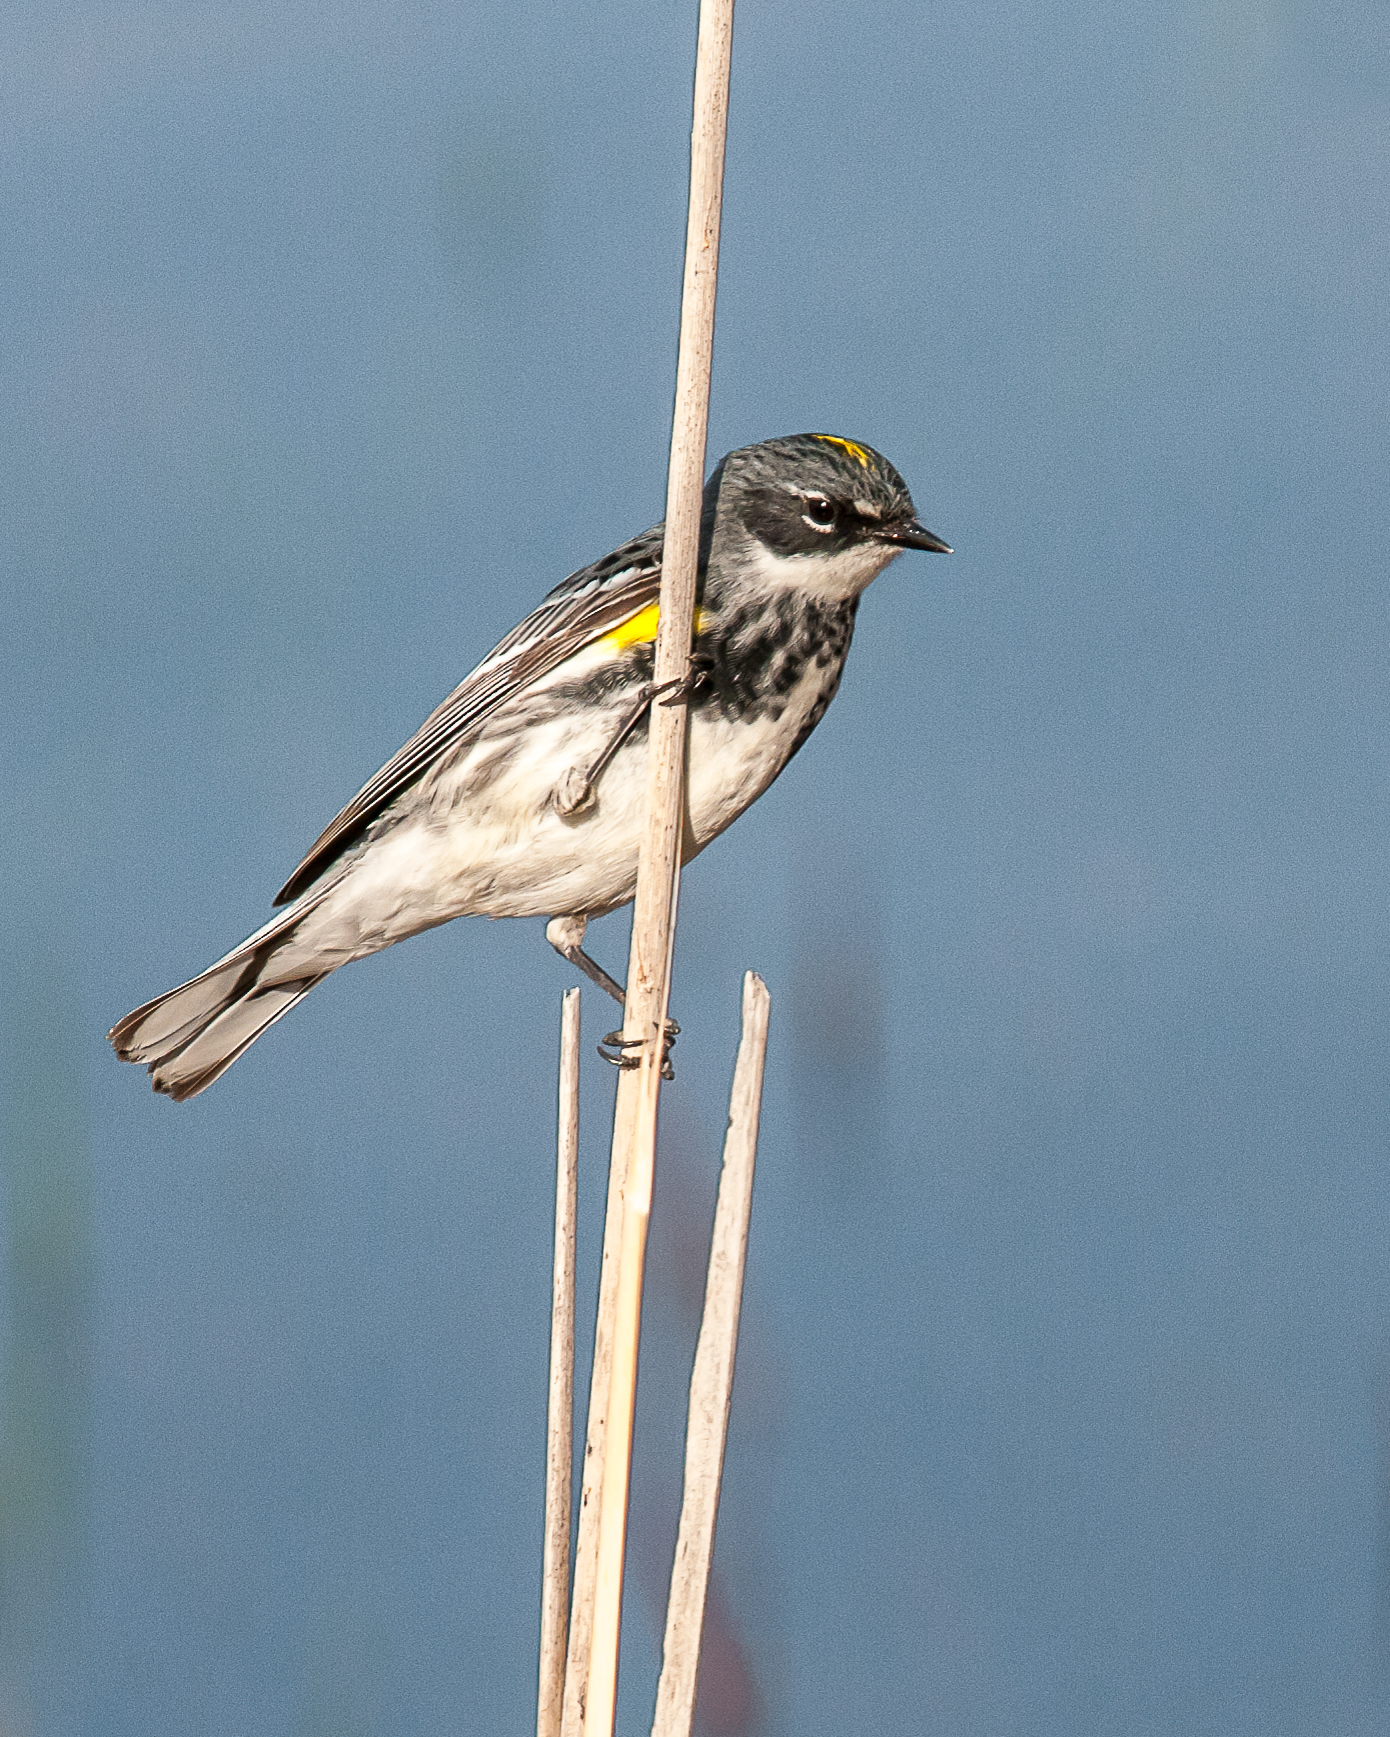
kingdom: Animalia
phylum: Chordata
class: Aves
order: Passeriformes
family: Parulidae
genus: Setophaga
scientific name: Setophaga coronata
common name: Myrtle warbler
